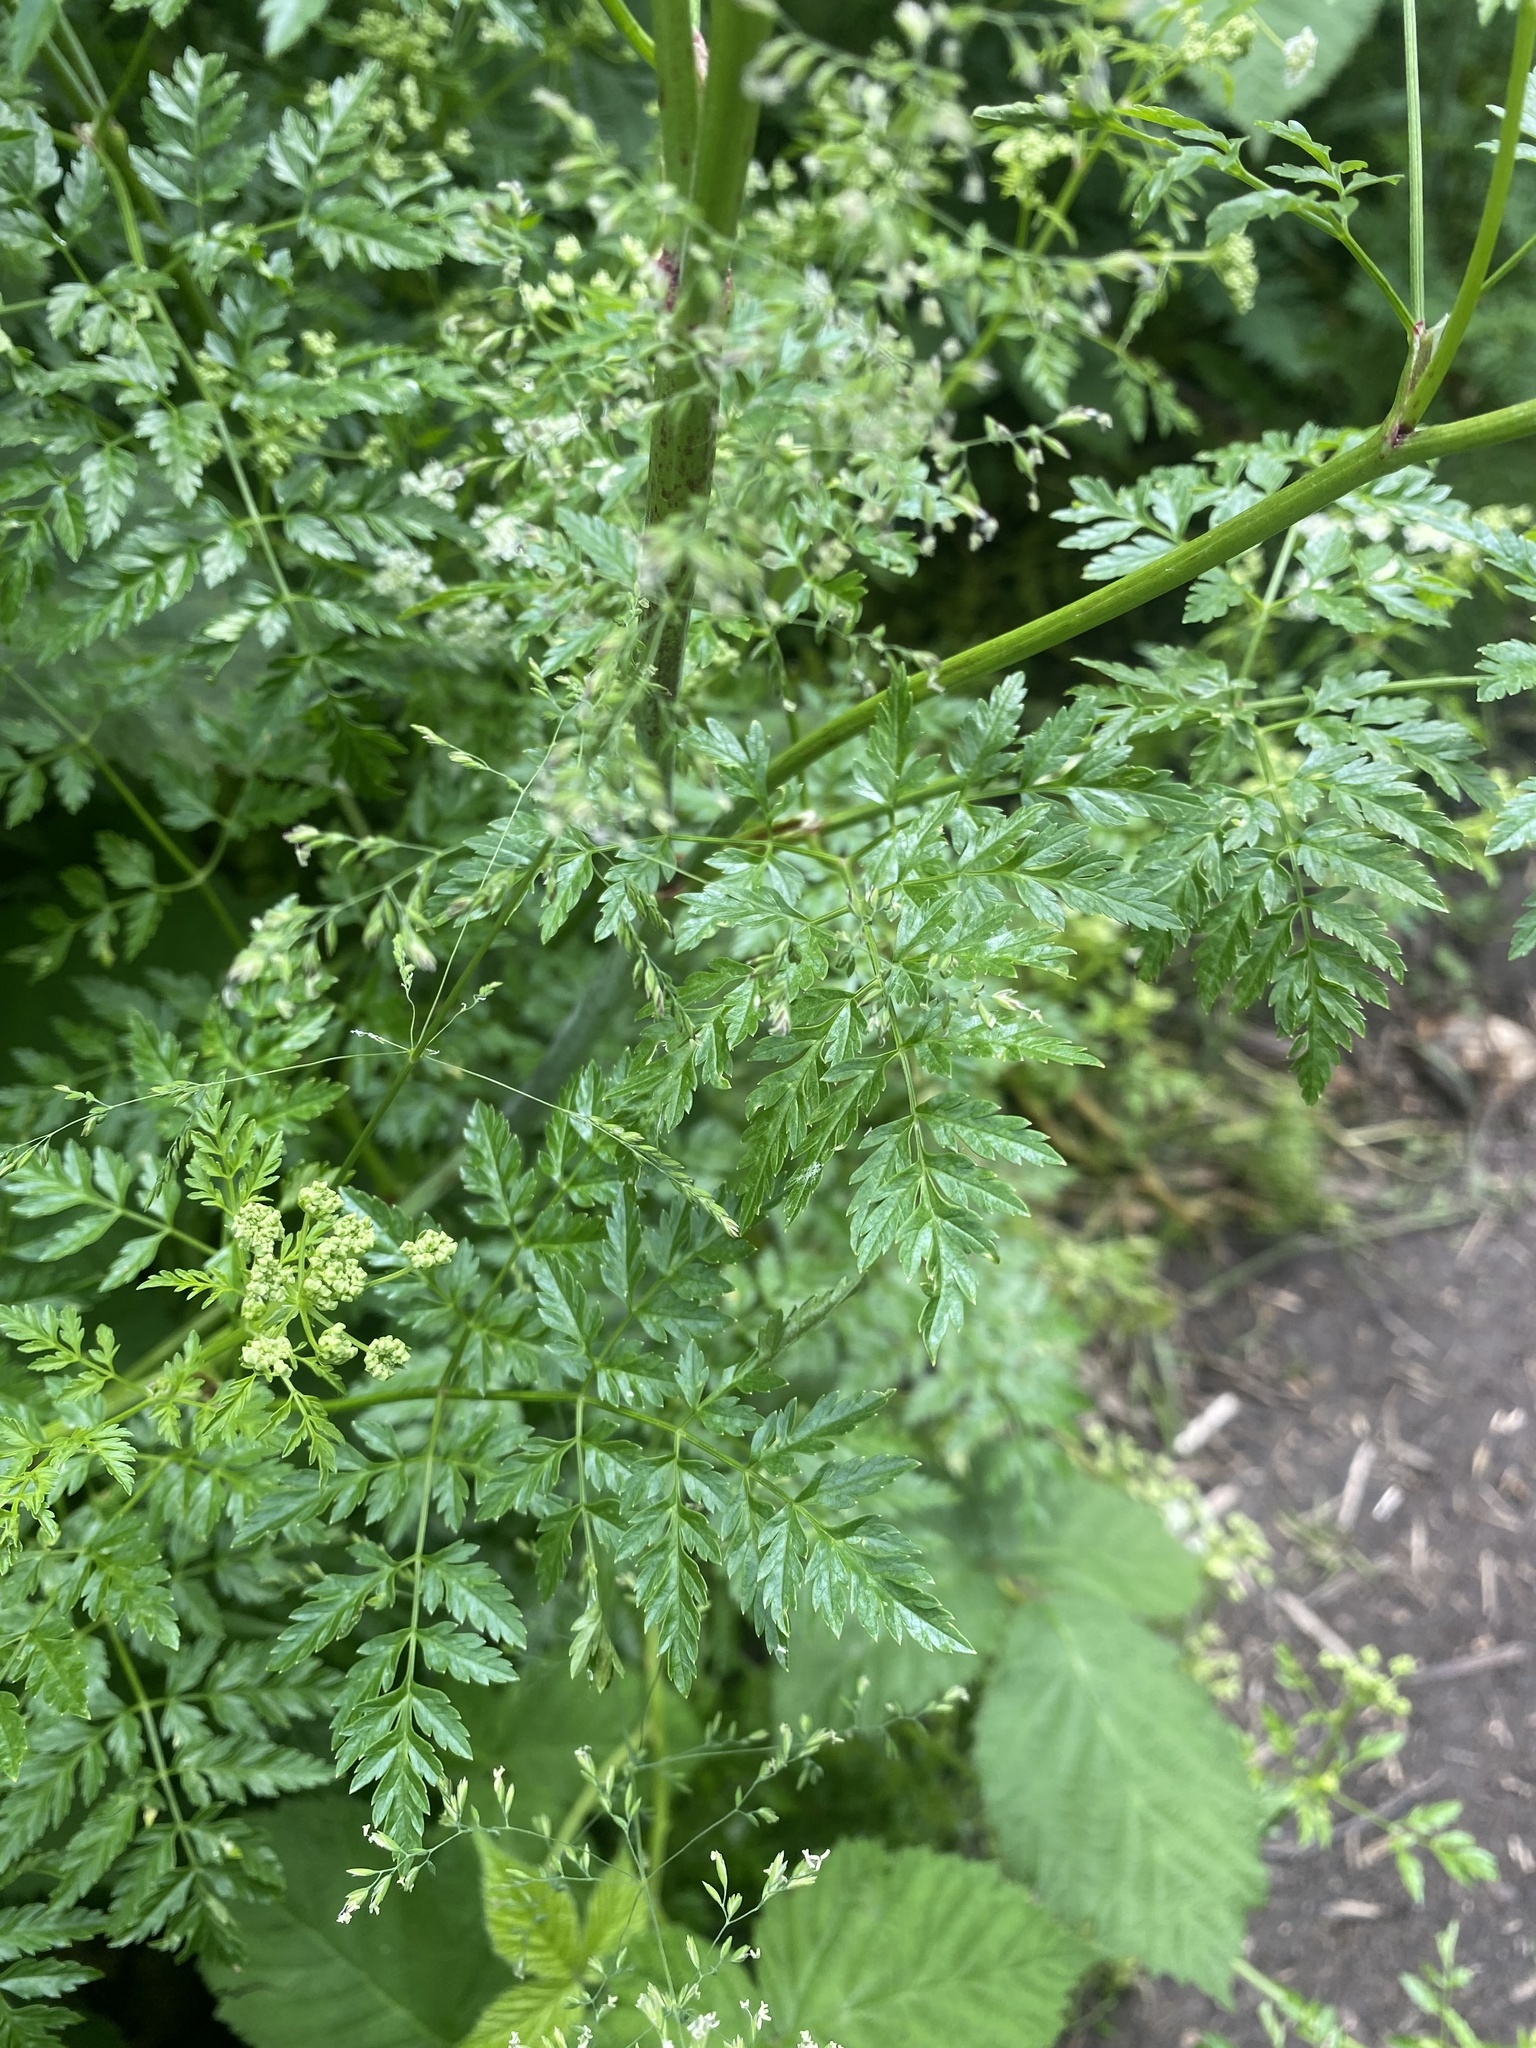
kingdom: Plantae
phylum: Tracheophyta
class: Magnoliopsida
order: Apiales
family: Apiaceae
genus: Conium
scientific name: Conium maculatum
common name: Hemlock
